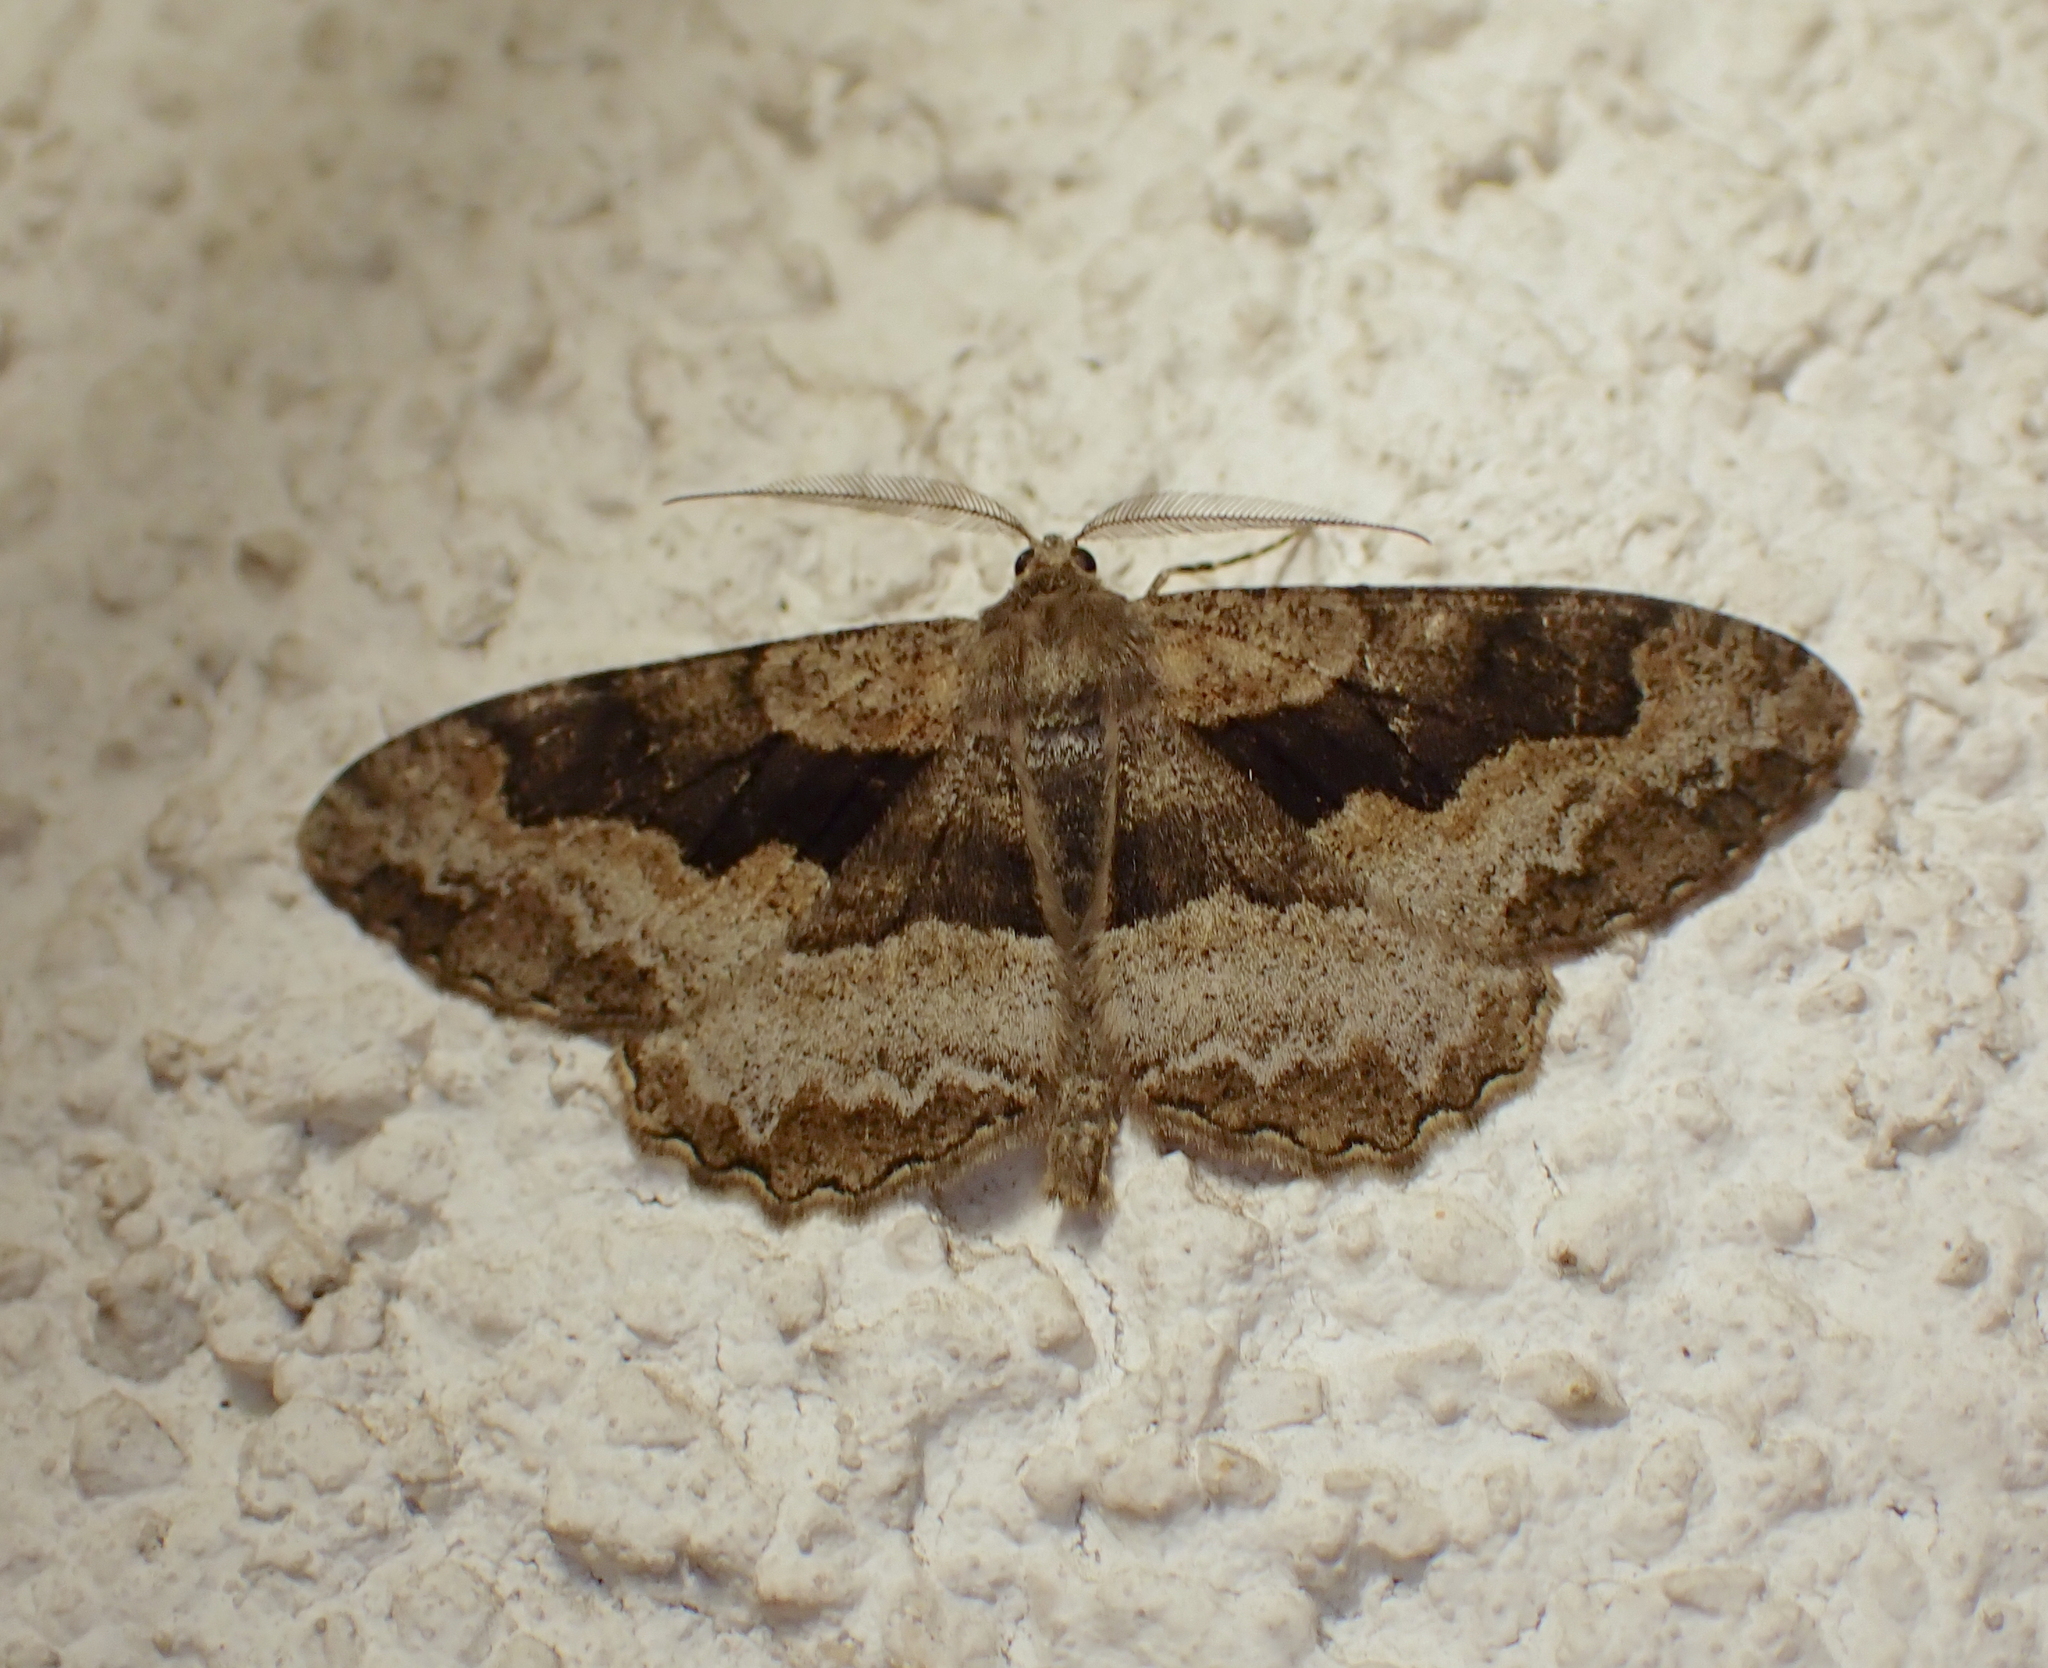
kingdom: Animalia
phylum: Arthropoda
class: Insecta
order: Lepidoptera
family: Geometridae
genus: Alcis
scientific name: Alcis repandata
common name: Mottled beauty
